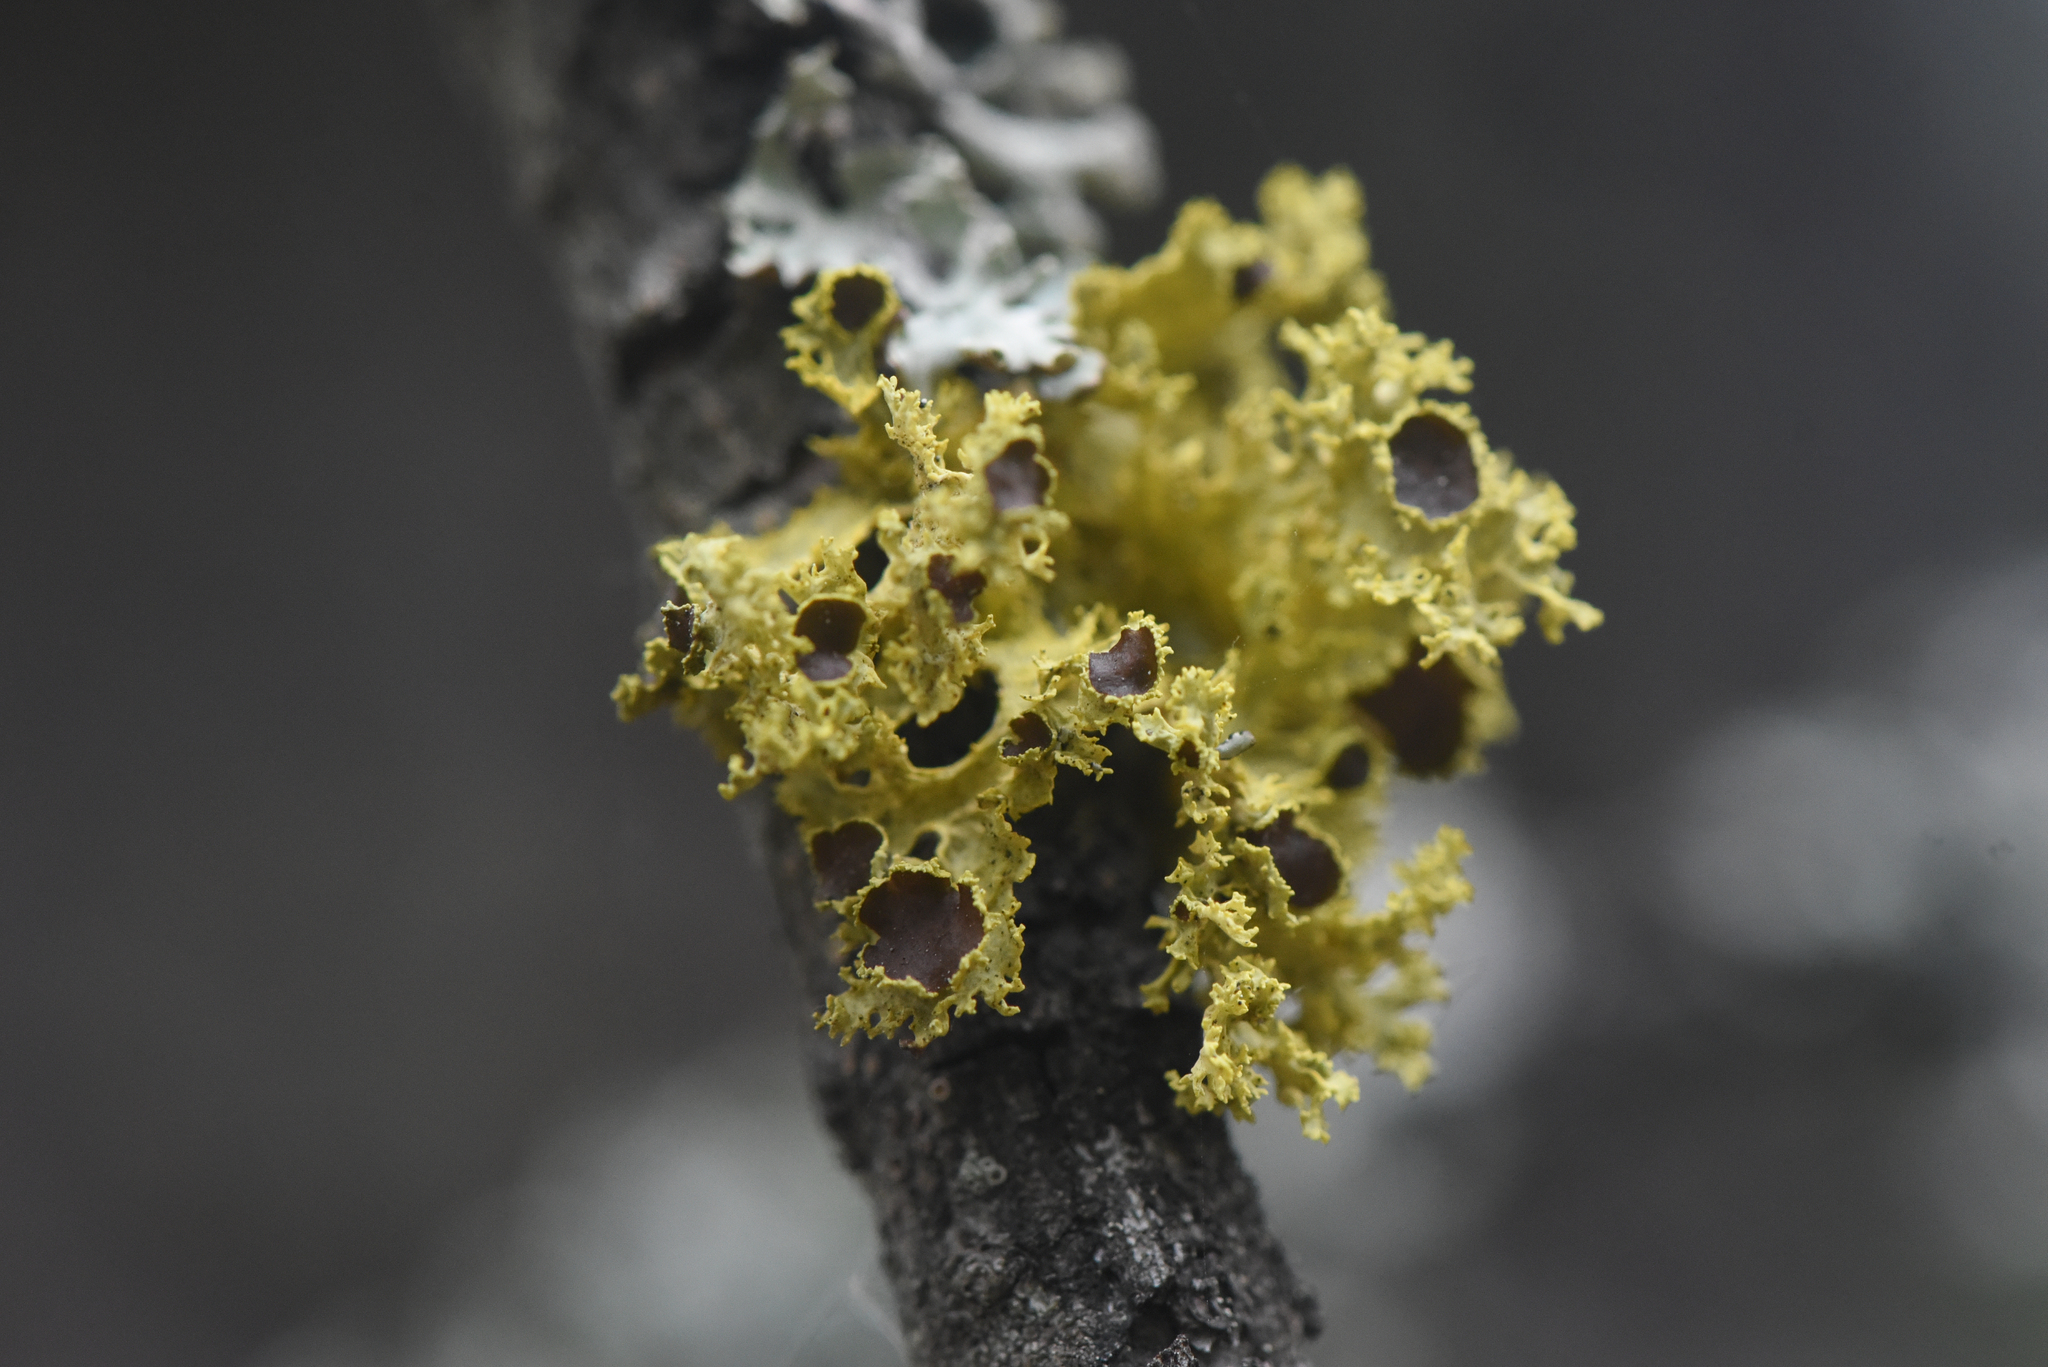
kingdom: Fungi
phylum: Ascomycota
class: Lecanoromycetes
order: Lecanorales
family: Parmeliaceae
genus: Vulpicida
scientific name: Vulpicida canadensis
